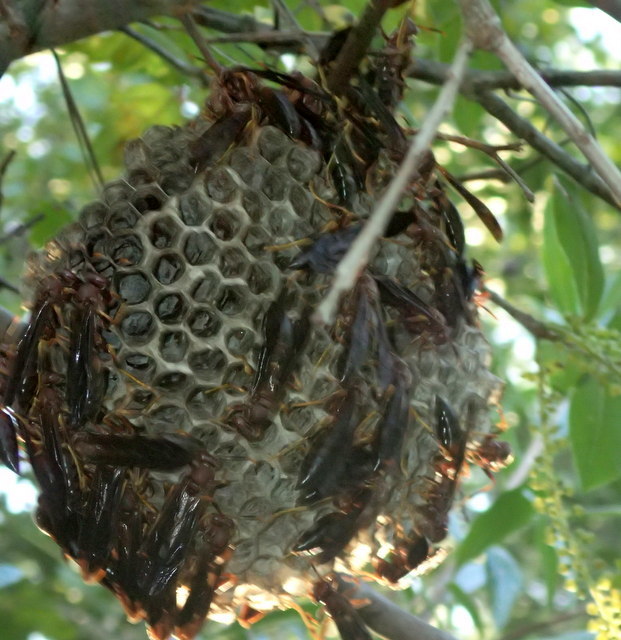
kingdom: Animalia
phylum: Arthropoda
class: Insecta
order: Hymenoptera
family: Eumenidae
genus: Polistes
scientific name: Polistes annularis
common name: Ringed paper wasp
